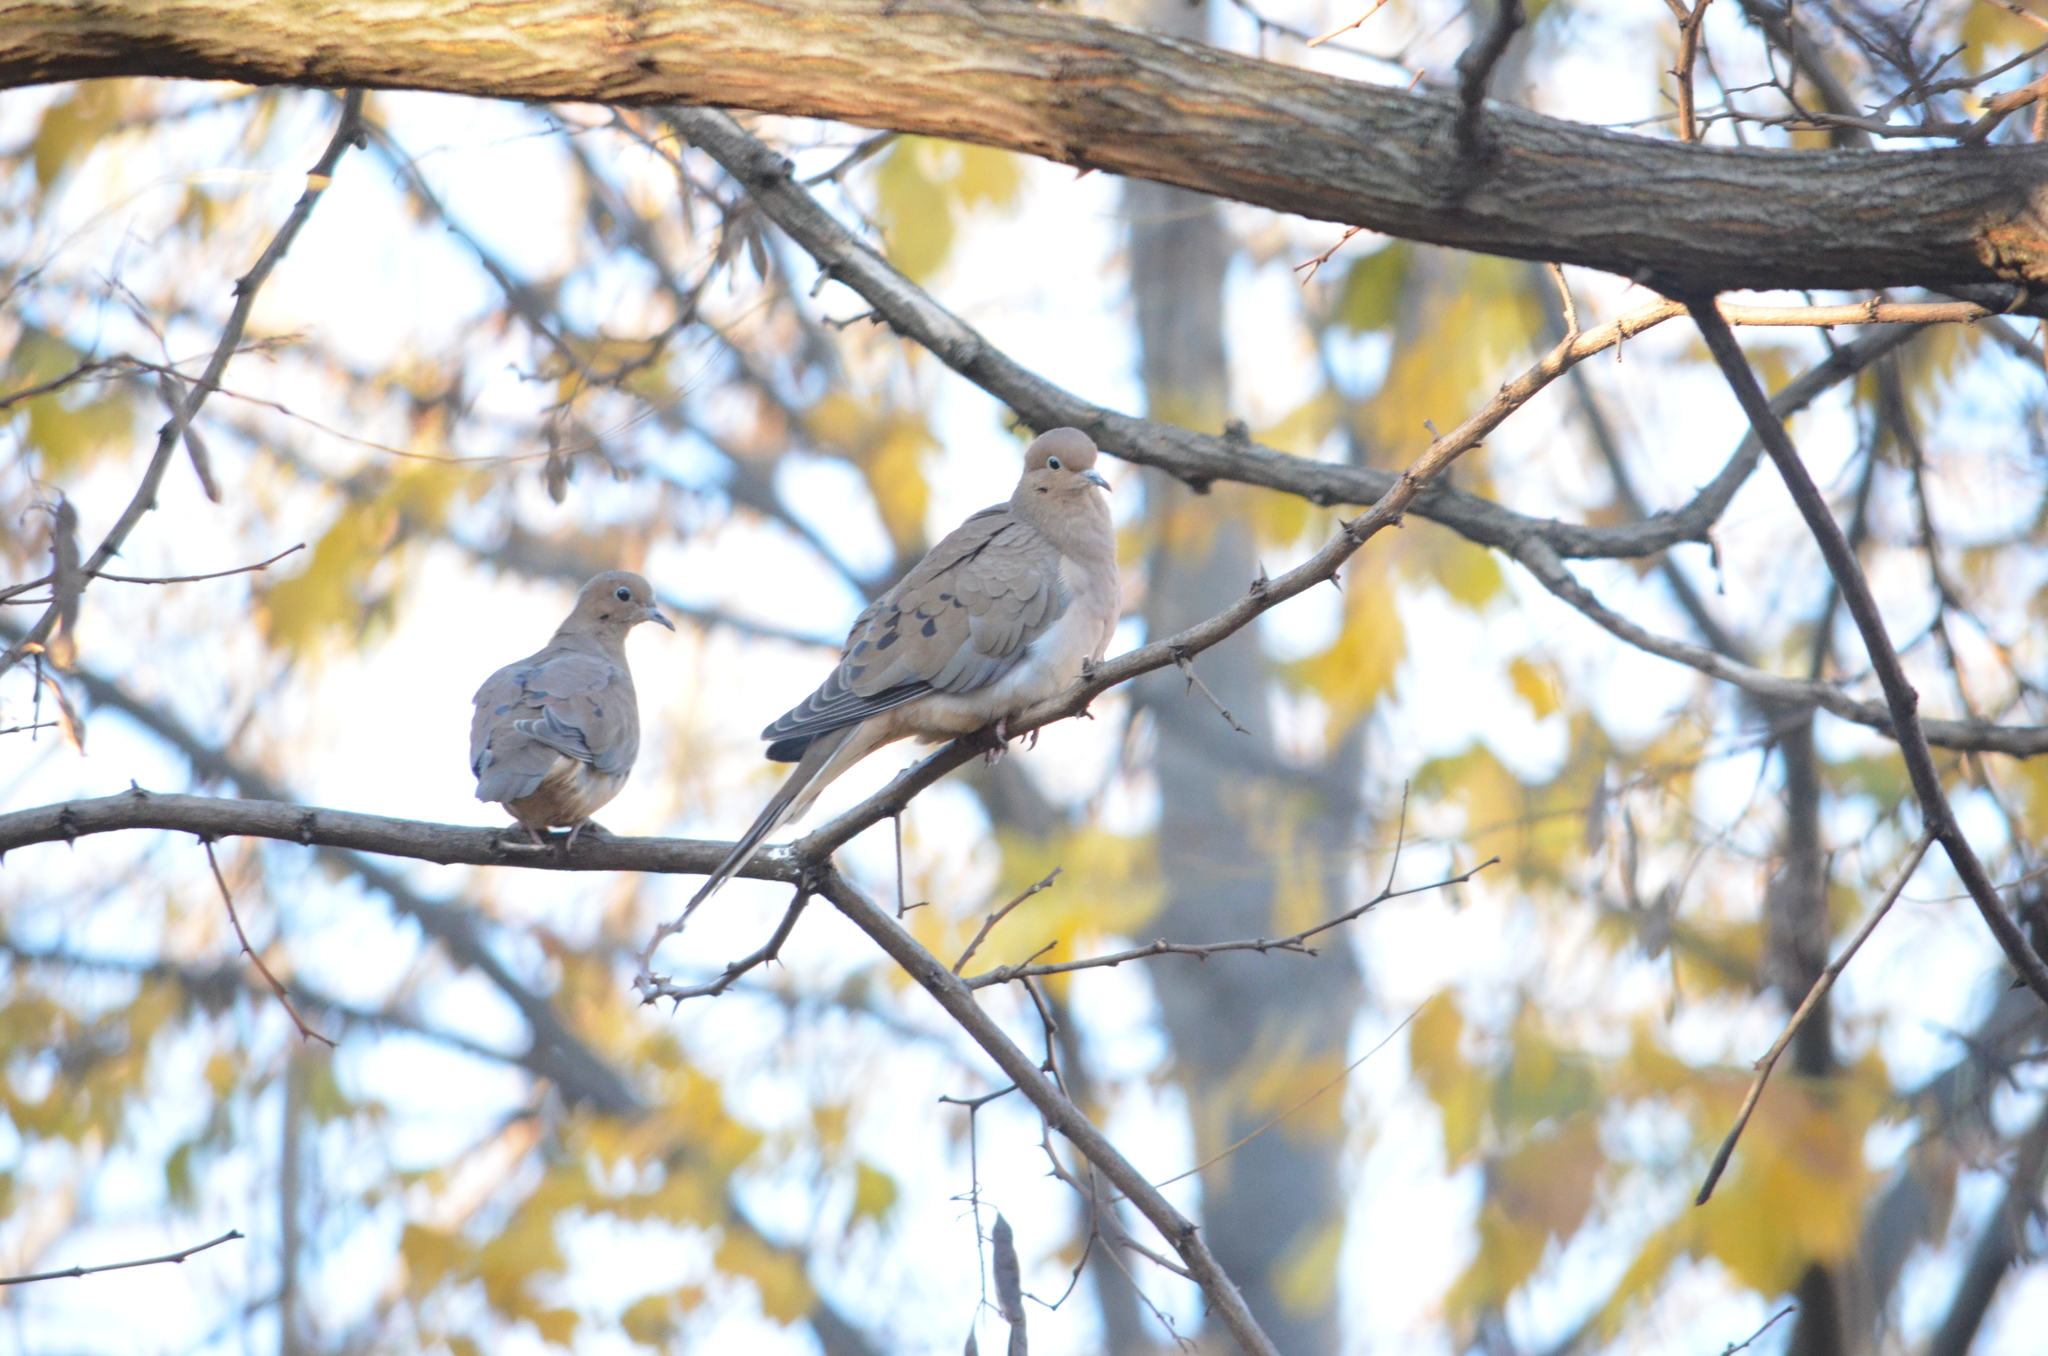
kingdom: Animalia
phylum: Chordata
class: Aves
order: Columbiformes
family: Columbidae
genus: Zenaida
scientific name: Zenaida macroura
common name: Mourning dove
